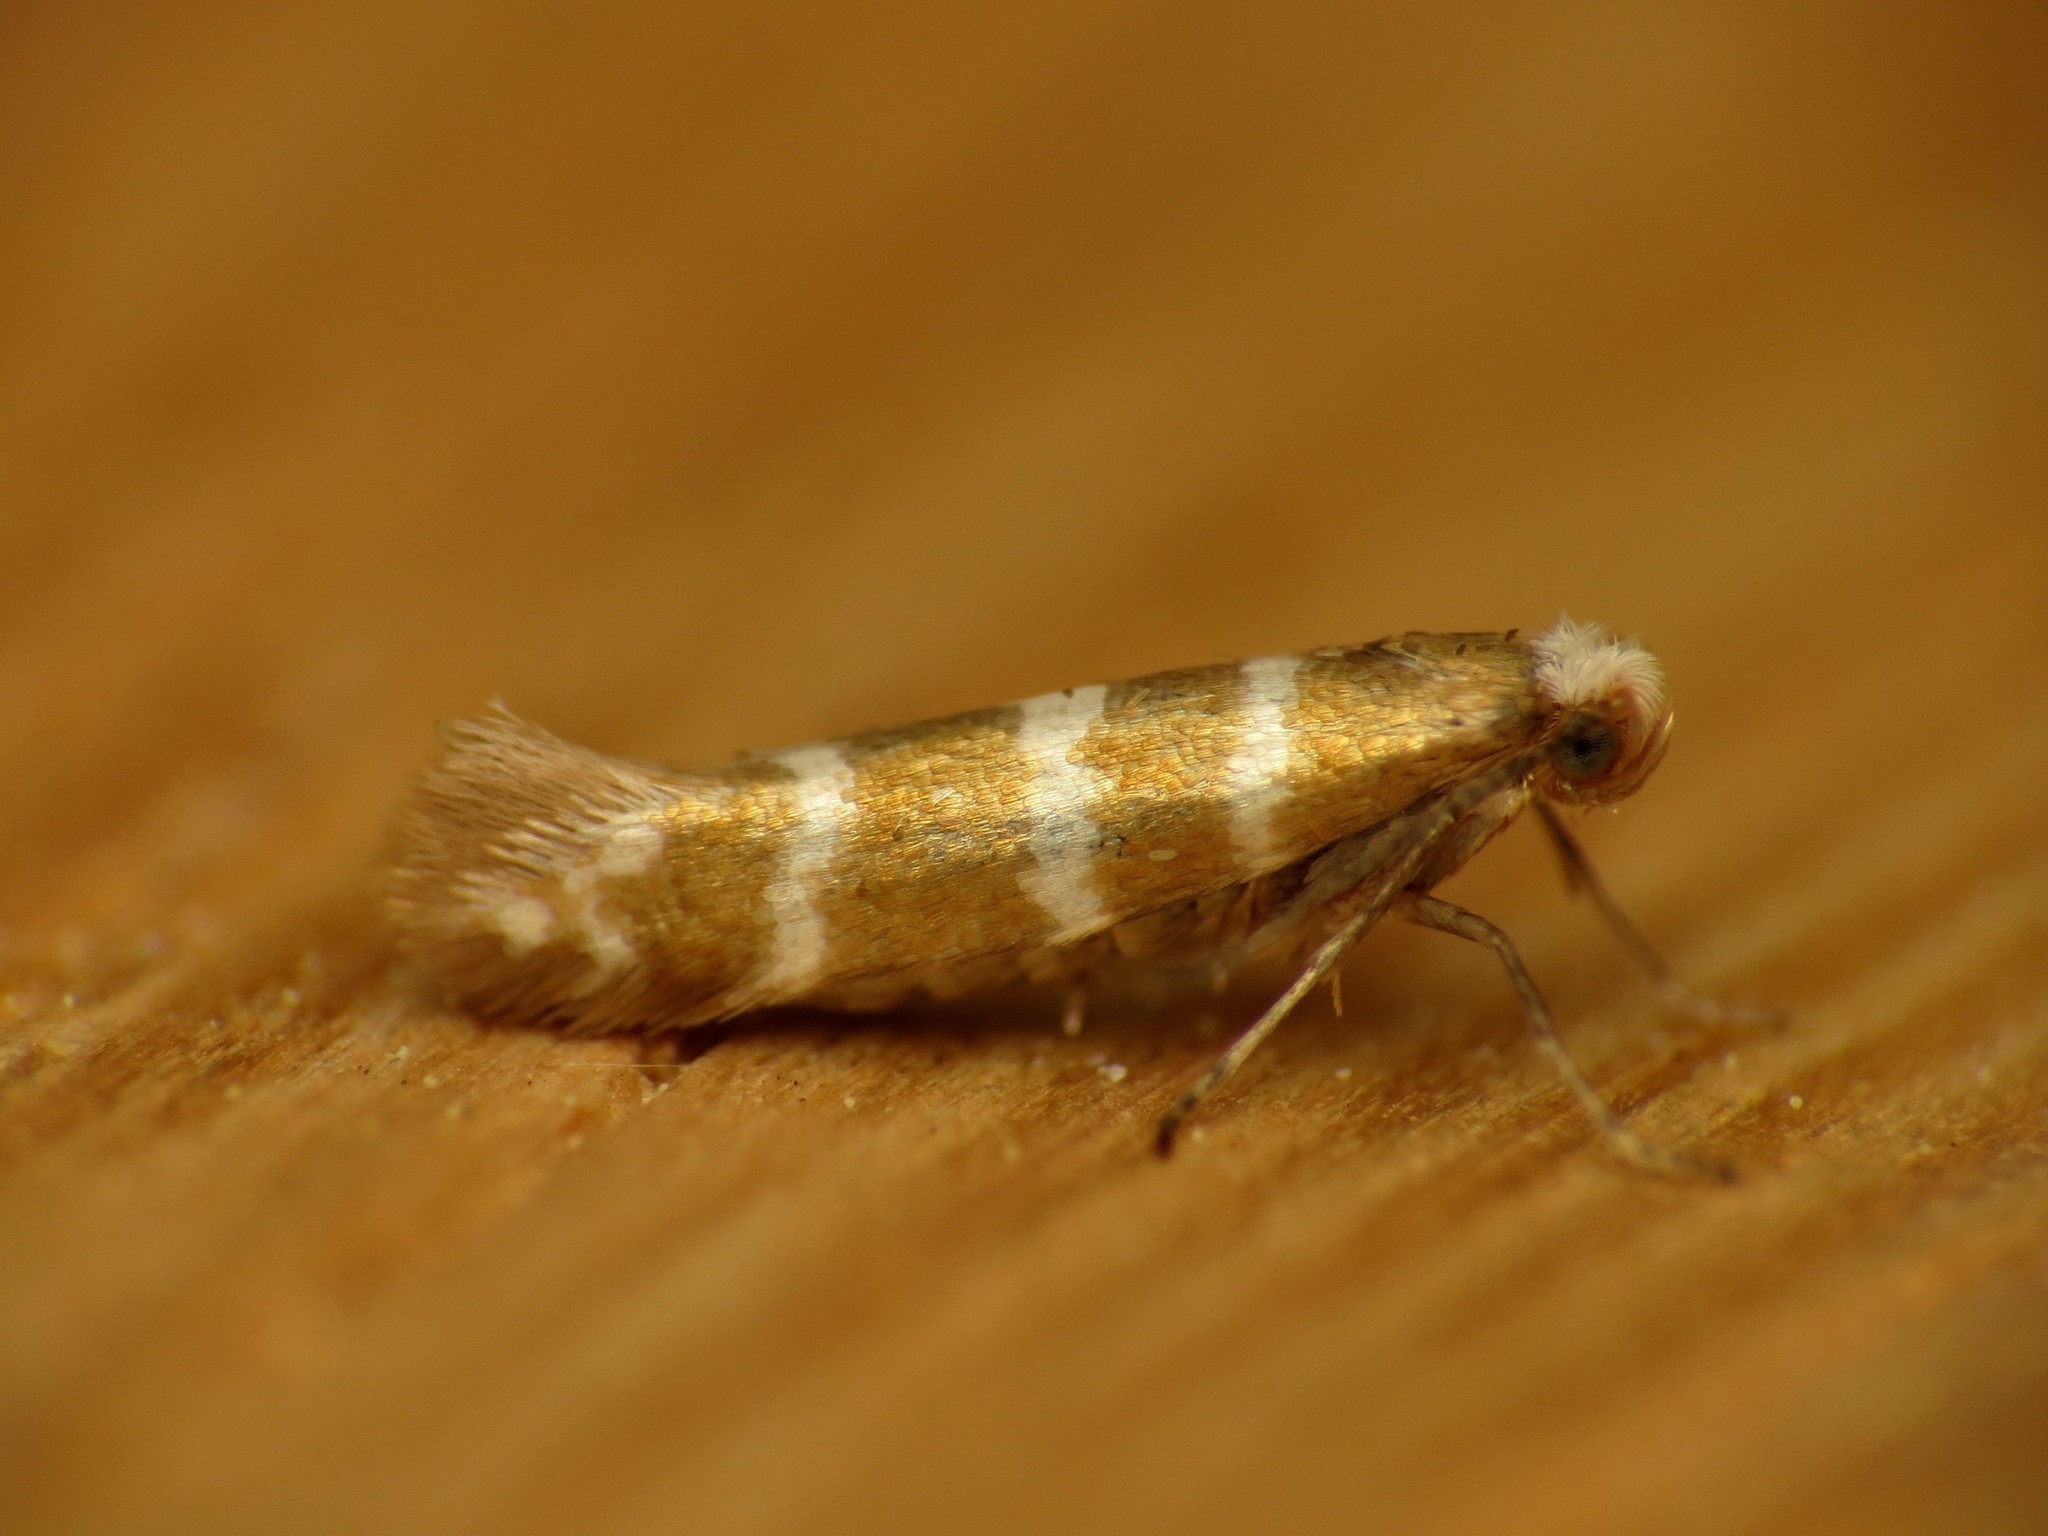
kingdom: Animalia
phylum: Arthropoda
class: Insecta
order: Lepidoptera
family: Argyresthiidae
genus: Argyresthia
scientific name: Argyresthia trifasciata
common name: Triple-barred argent
